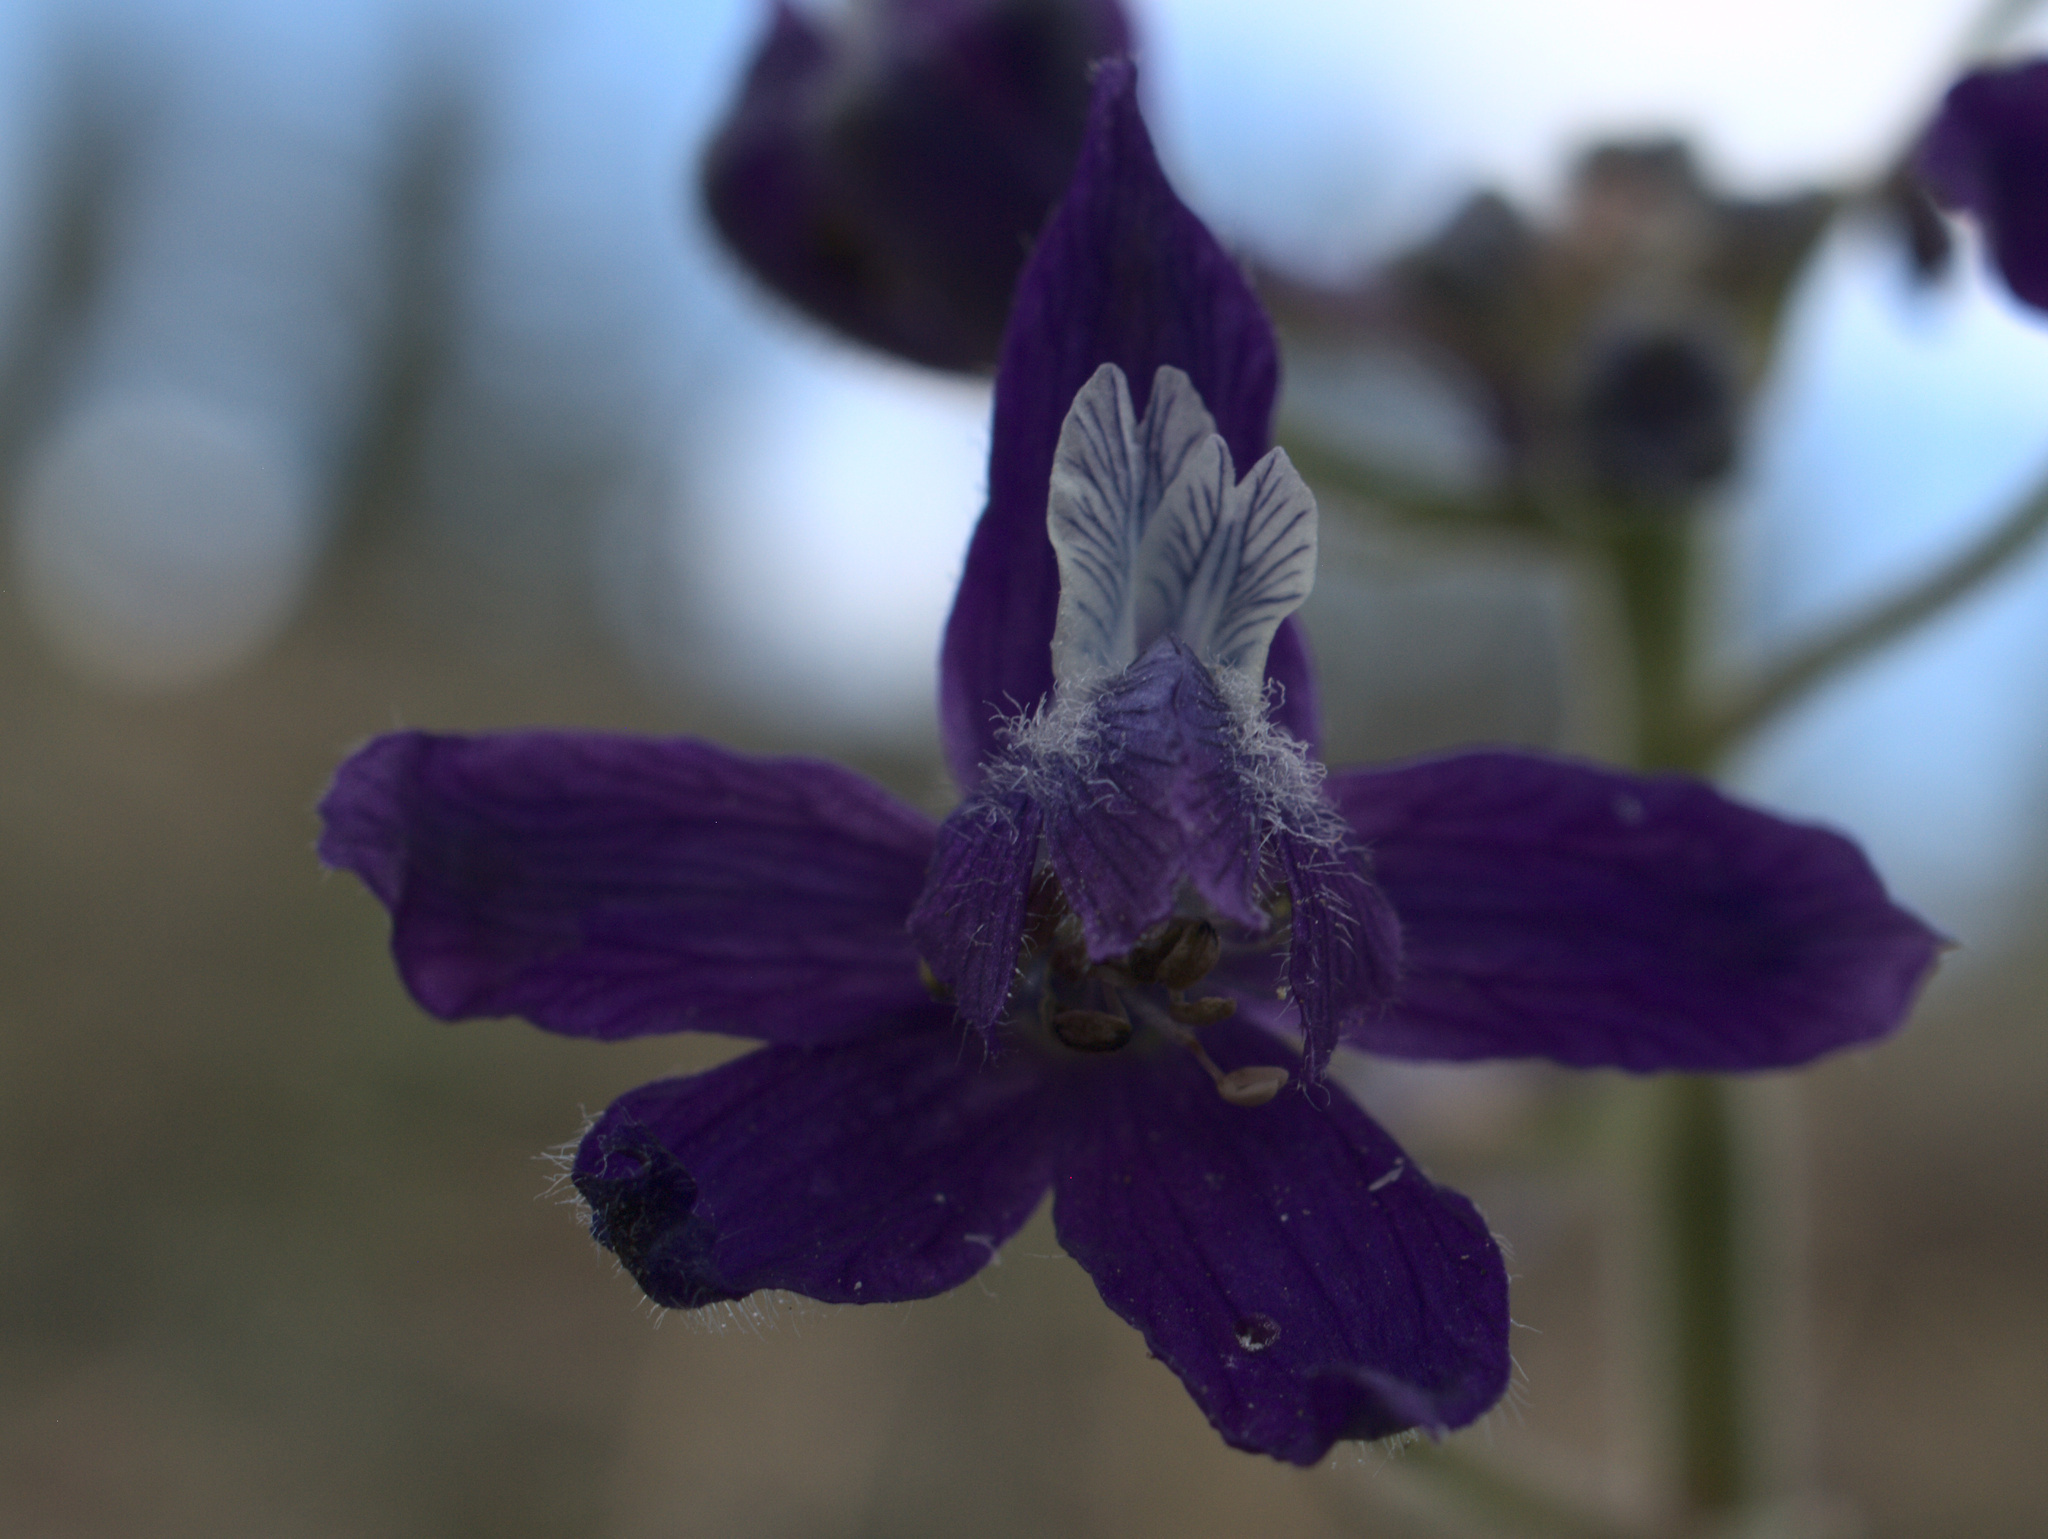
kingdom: Plantae
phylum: Tracheophyta
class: Magnoliopsida
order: Ranunculales
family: Ranunculaceae
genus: Delphinium
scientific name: Delphinium nuttallianum
